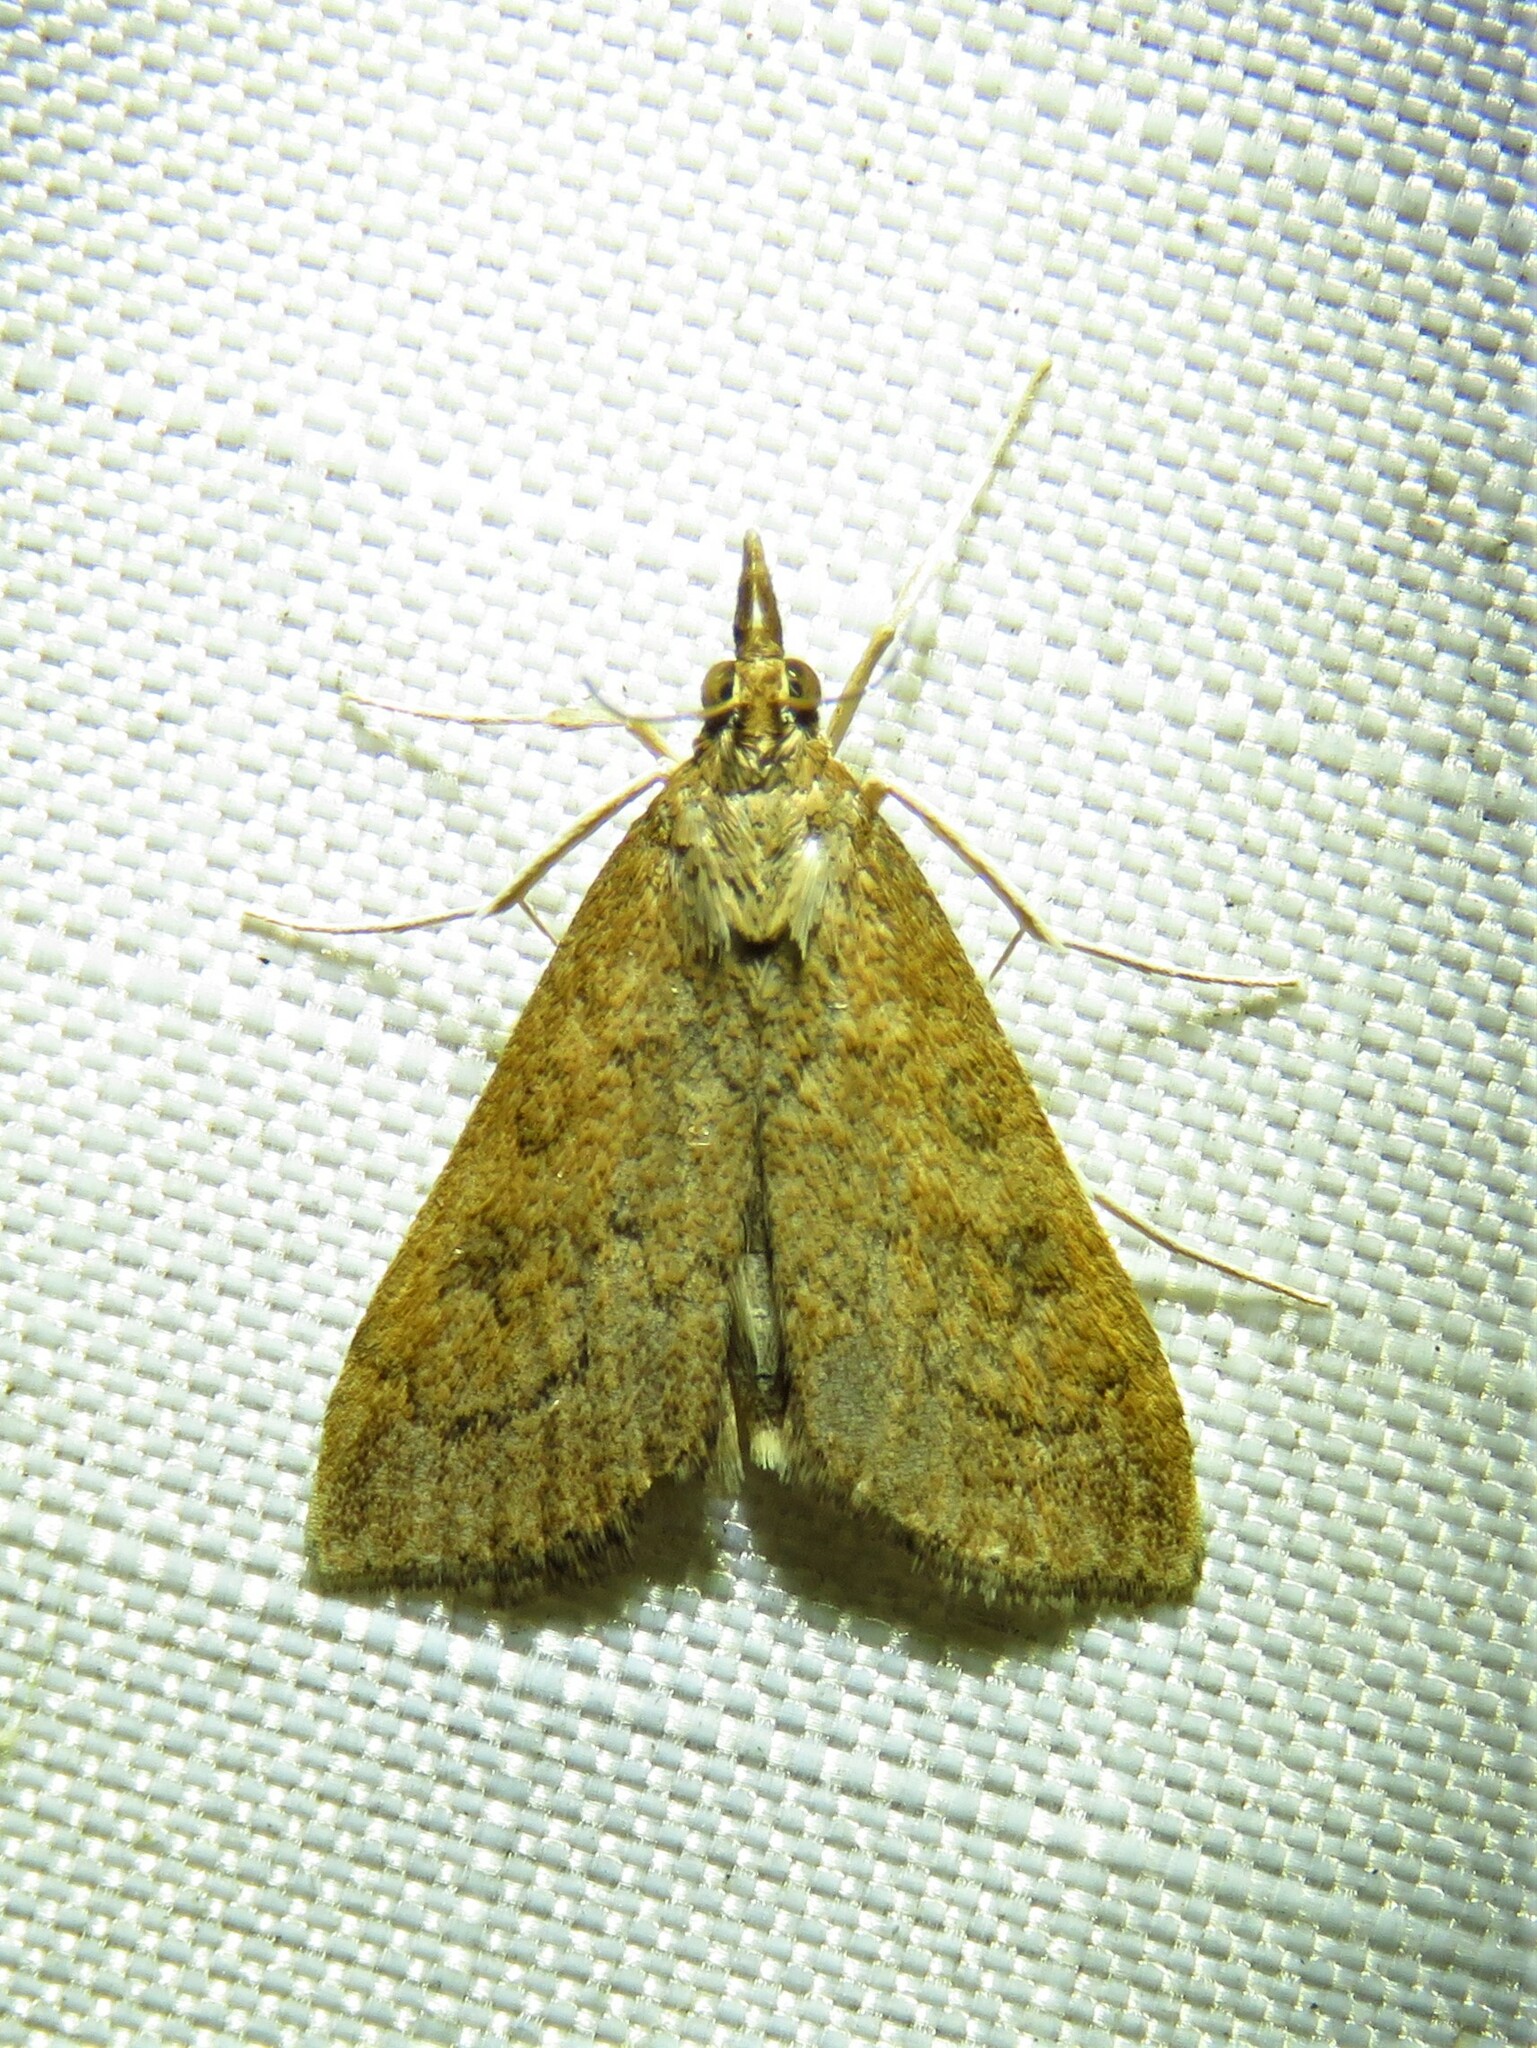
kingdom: Animalia
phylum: Arthropoda
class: Insecta
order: Lepidoptera
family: Crambidae
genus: Udea
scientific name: Udea rubigalis
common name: Celery leaftier moth
